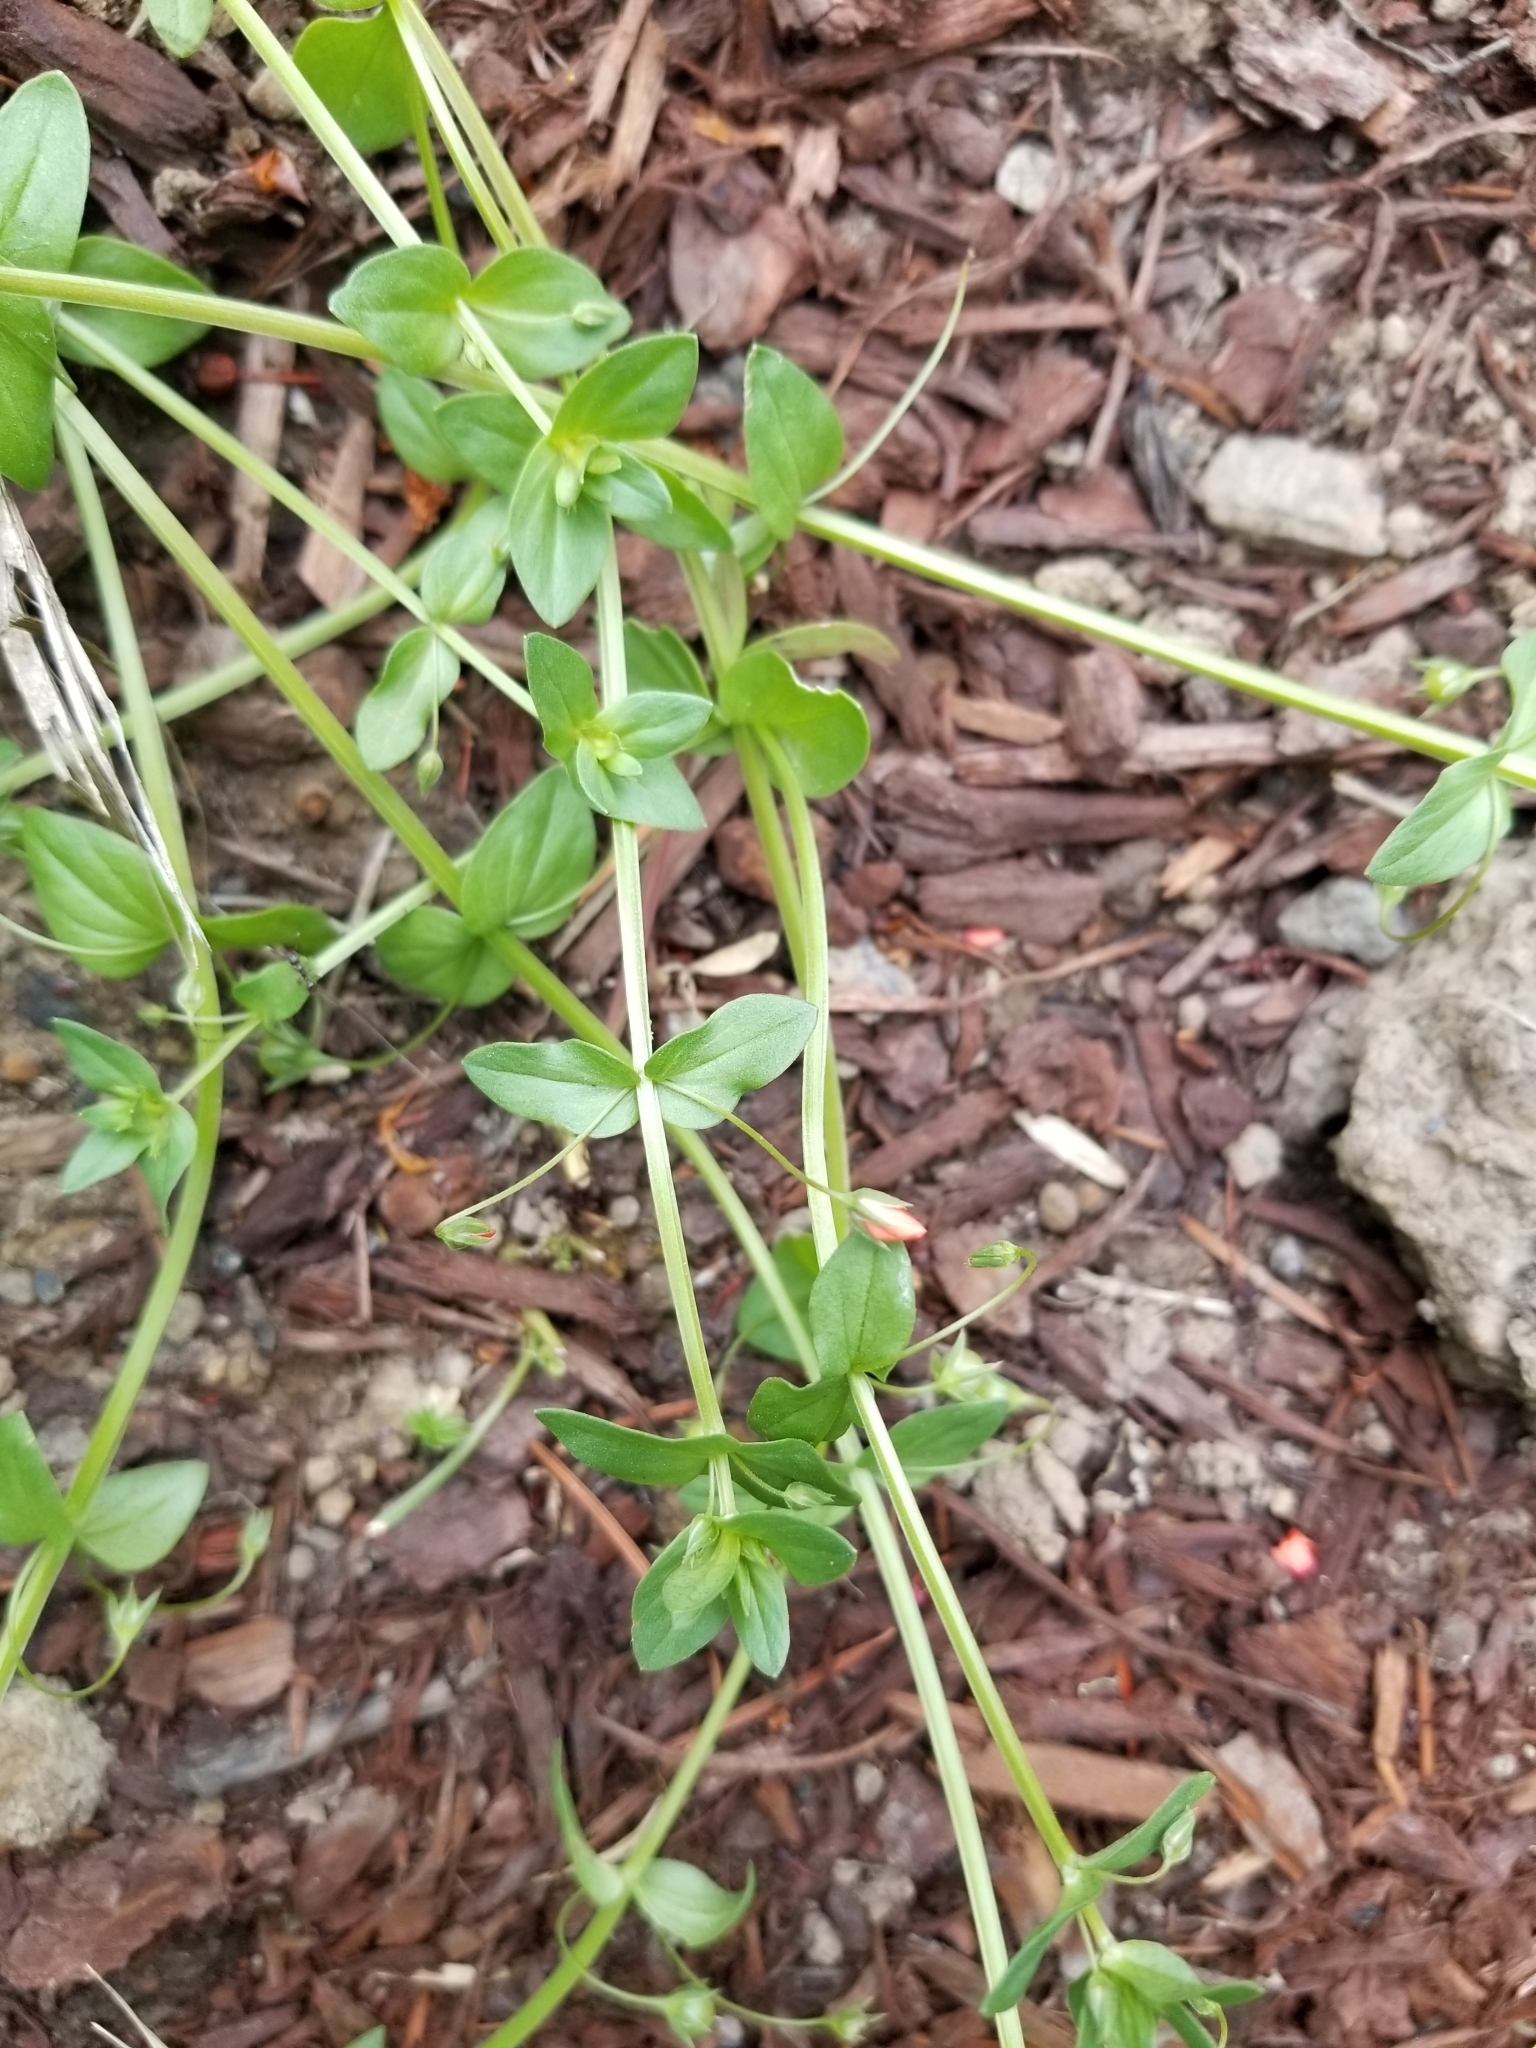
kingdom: Plantae
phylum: Tracheophyta
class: Magnoliopsida
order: Ericales
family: Primulaceae
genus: Lysimachia
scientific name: Lysimachia arvensis
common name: Scarlet pimpernel
